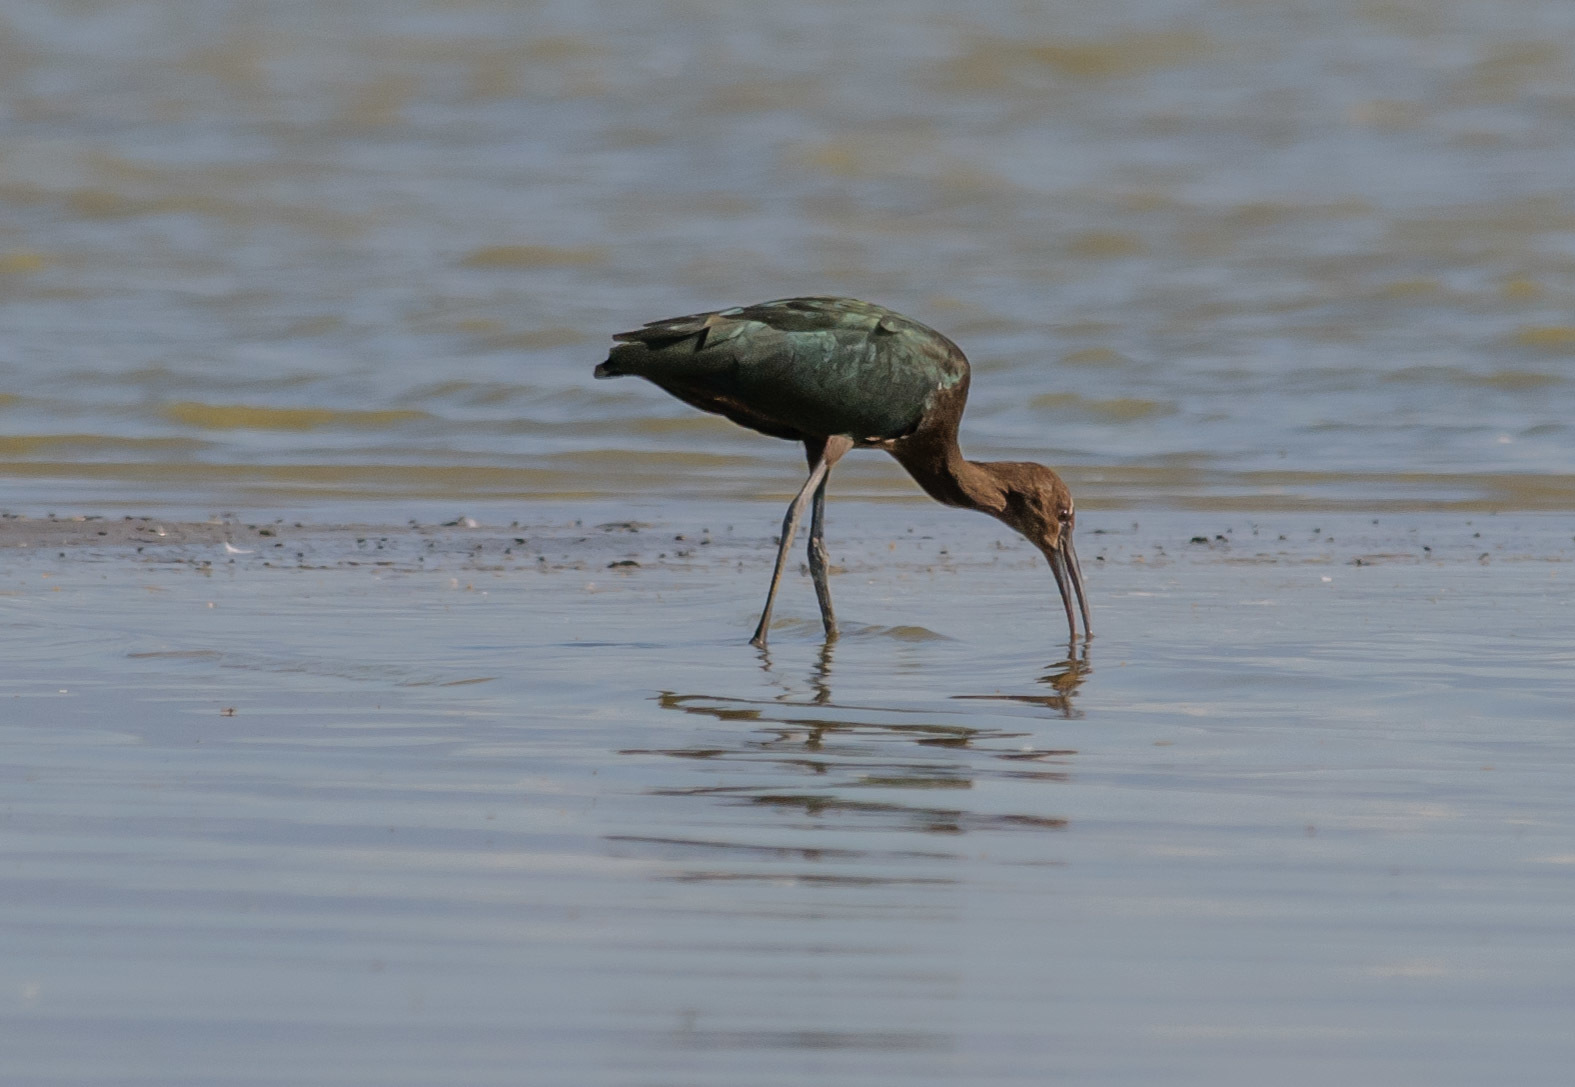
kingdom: Animalia
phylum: Chordata
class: Aves
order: Pelecaniformes
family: Threskiornithidae
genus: Plegadis
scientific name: Plegadis chihi
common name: White-faced ibis
